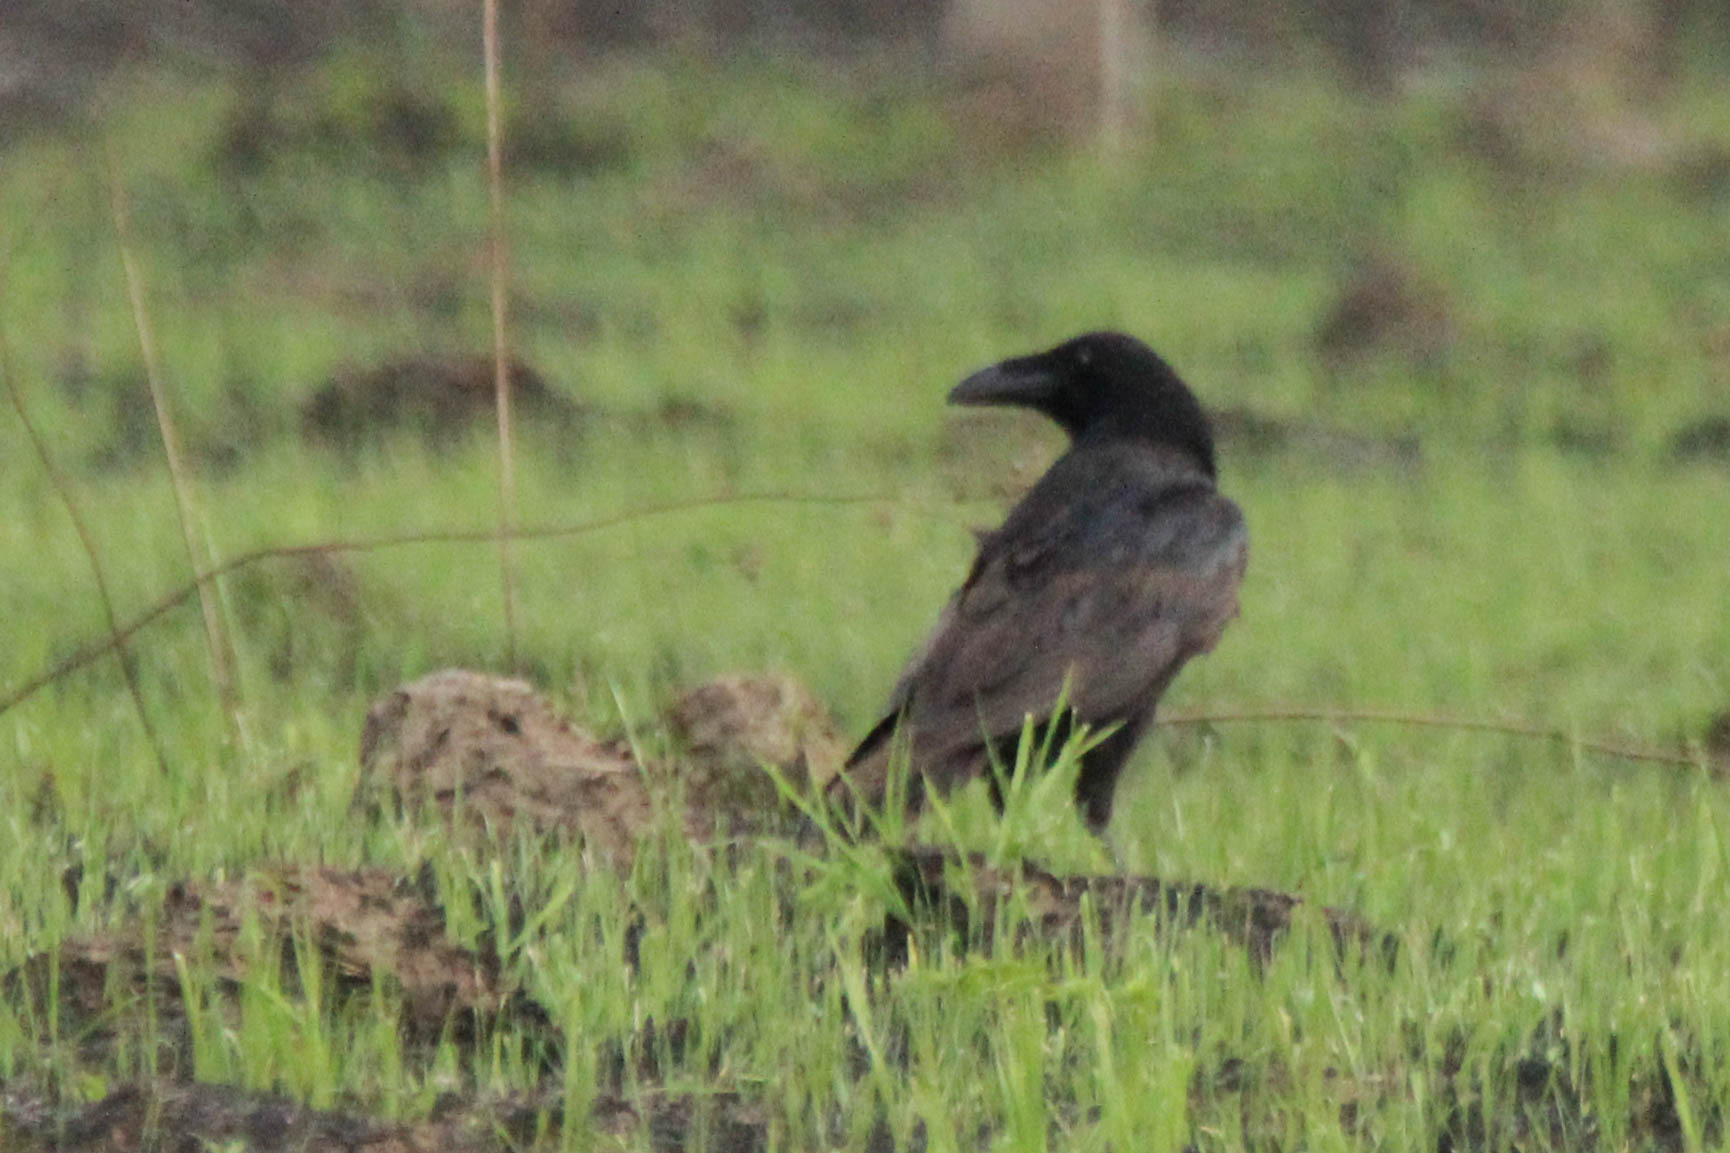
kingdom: Animalia
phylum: Chordata
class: Aves
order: Passeriformes
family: Corvidae
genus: Corvus
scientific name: Corvus corax
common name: Common raven
